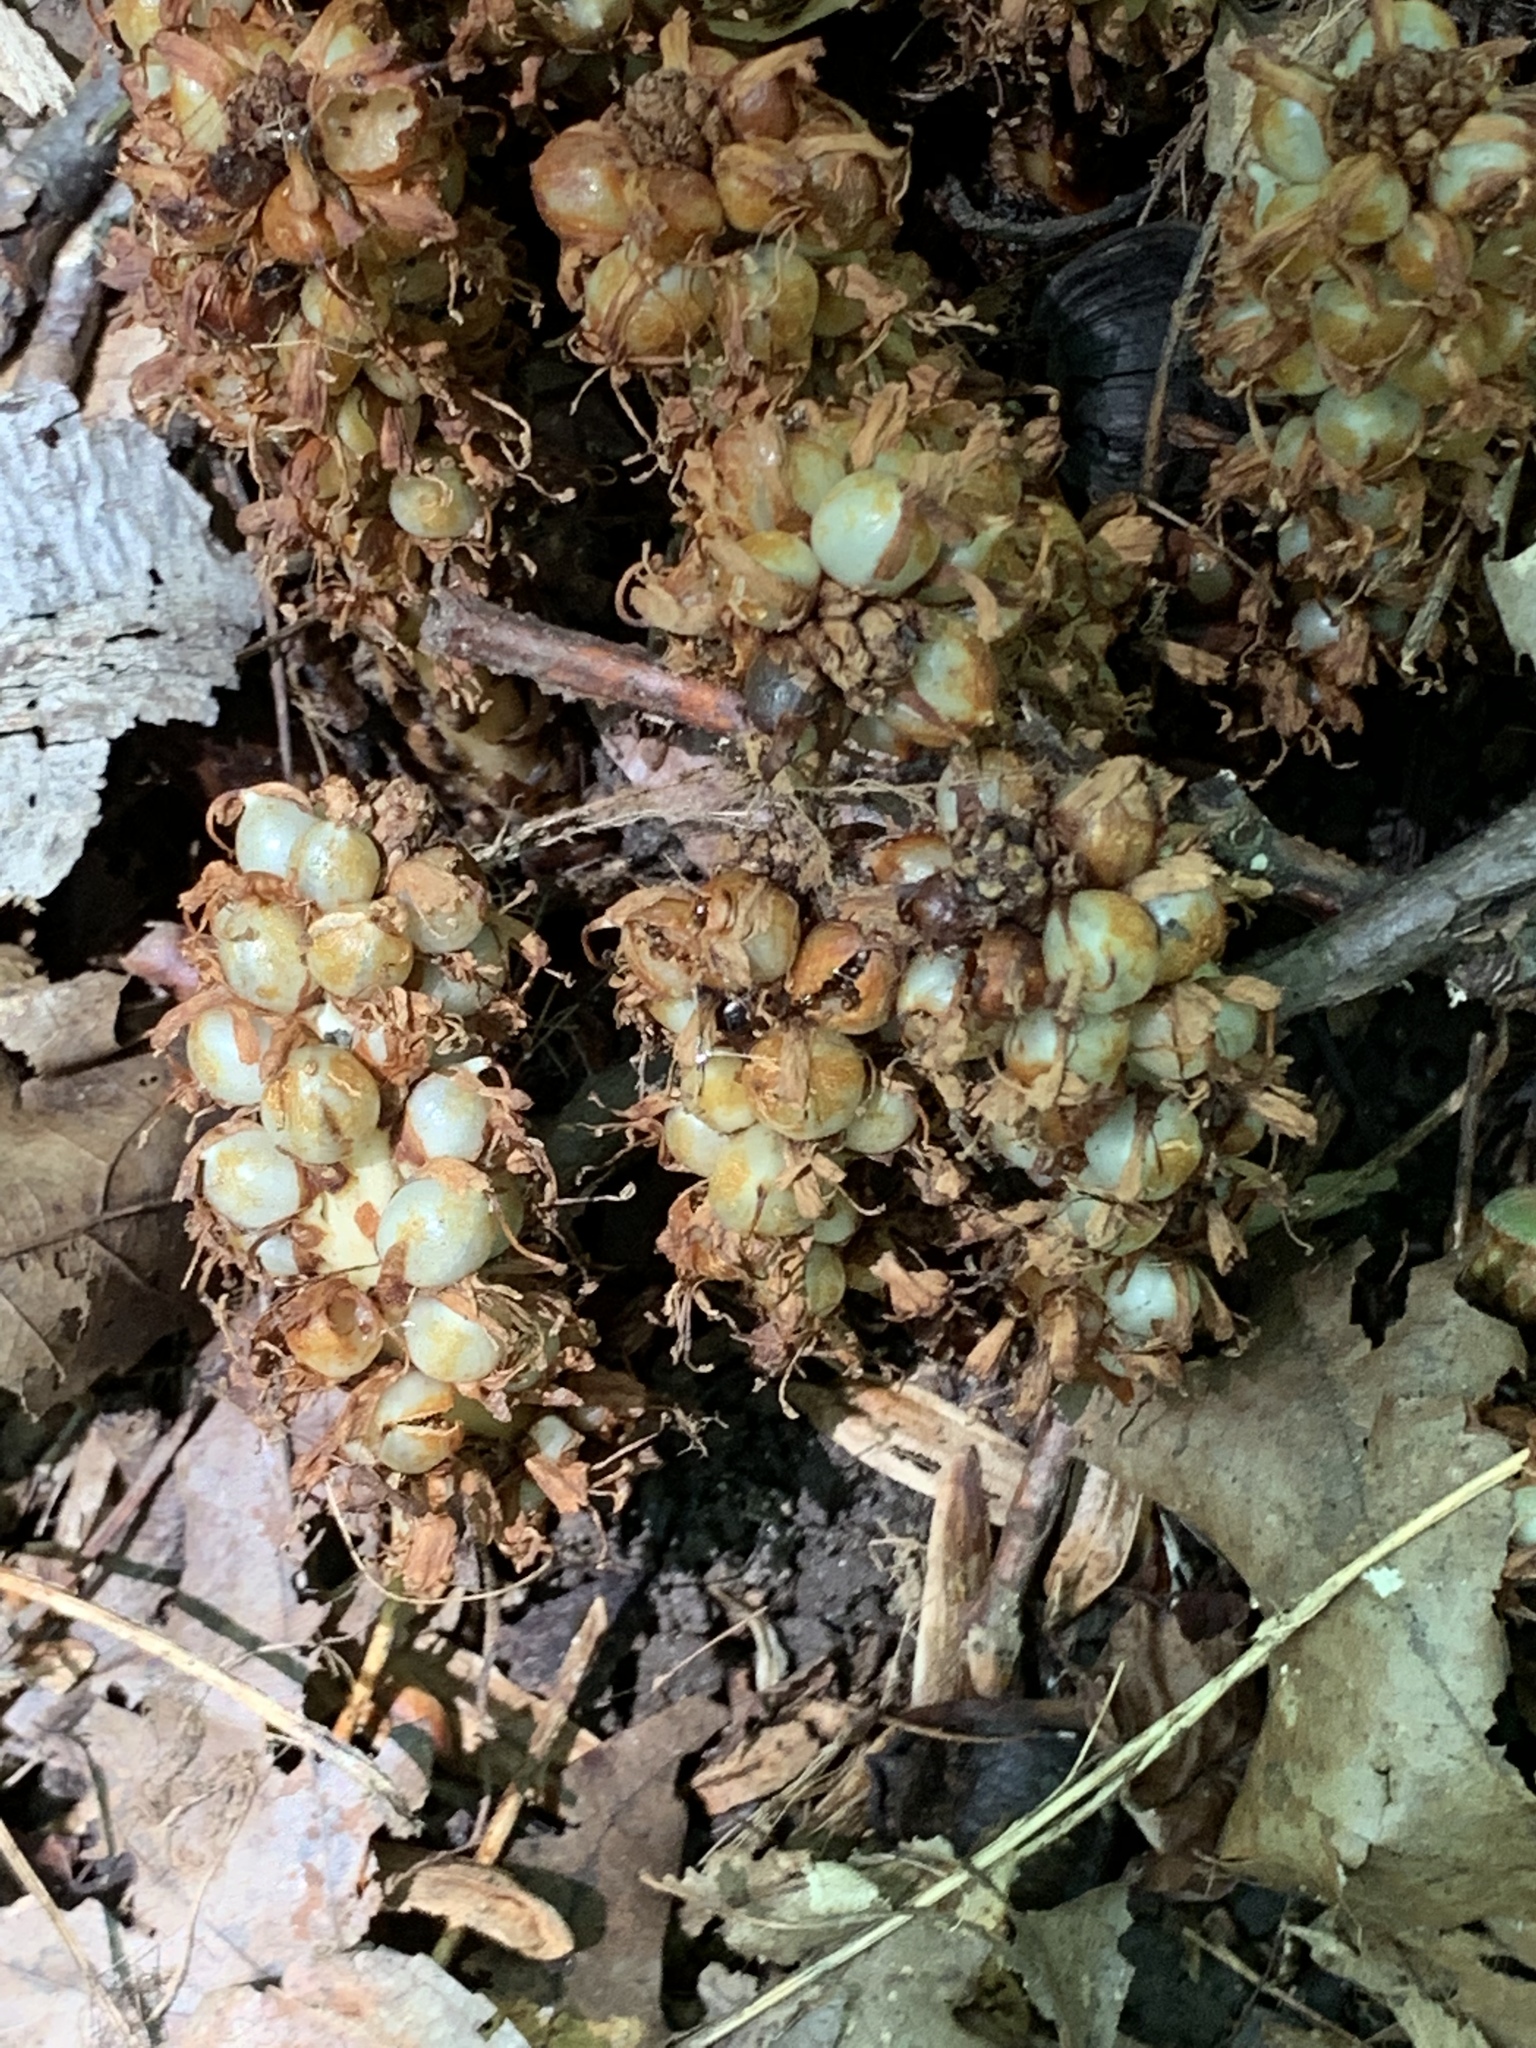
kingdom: Plantae
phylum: Tracheophyta
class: Magnoliopsida
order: Lamiales
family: Orobanchaceae
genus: Conopholis
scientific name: Conopholis americana
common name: American cancer-root
